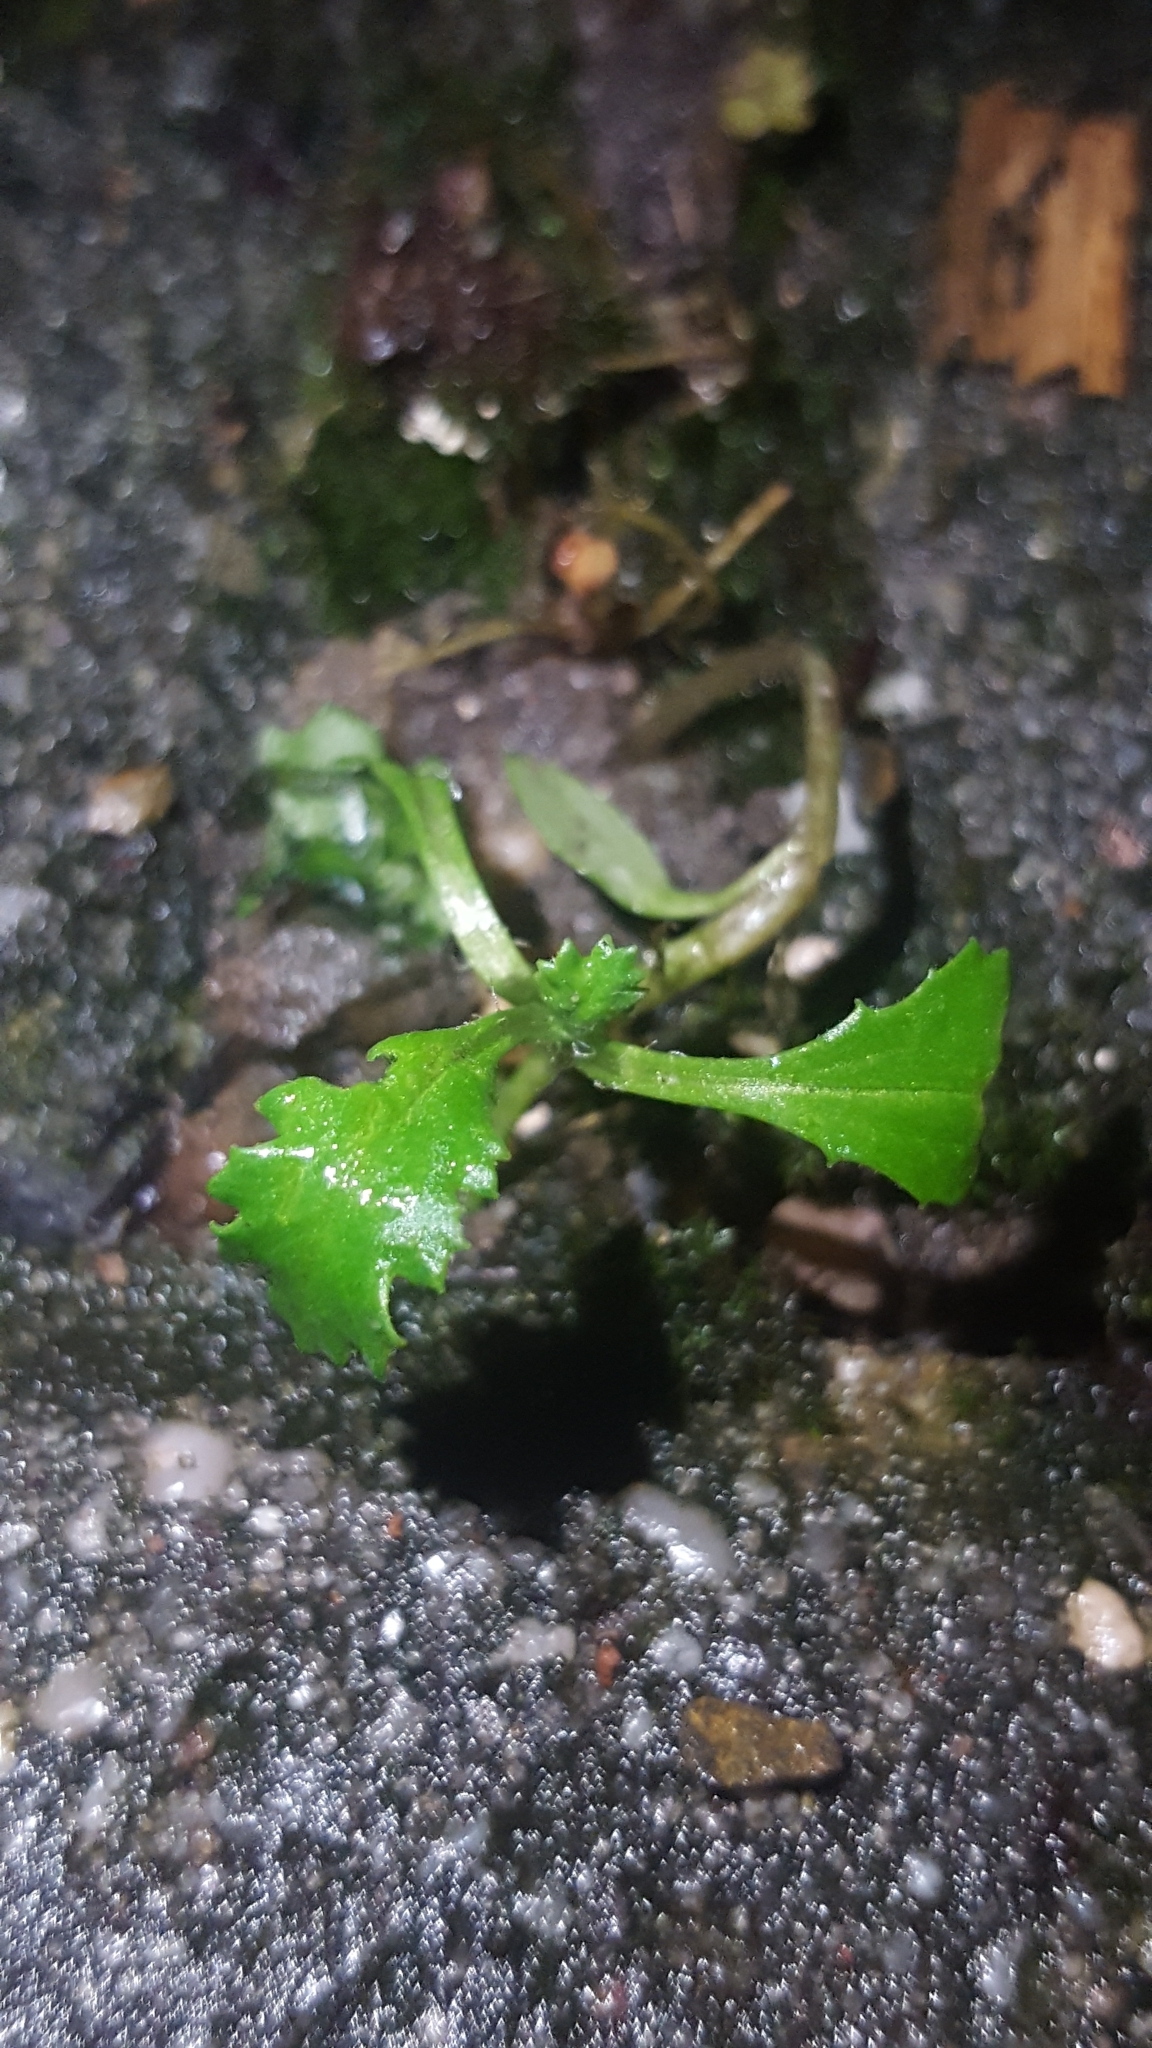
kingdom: Plantae
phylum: Tracheophyta
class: Magnoliopsida
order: Asterales
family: Asteraceae
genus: Senecio
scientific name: Senecio vulgaris
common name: Old-man-in-the-spring
